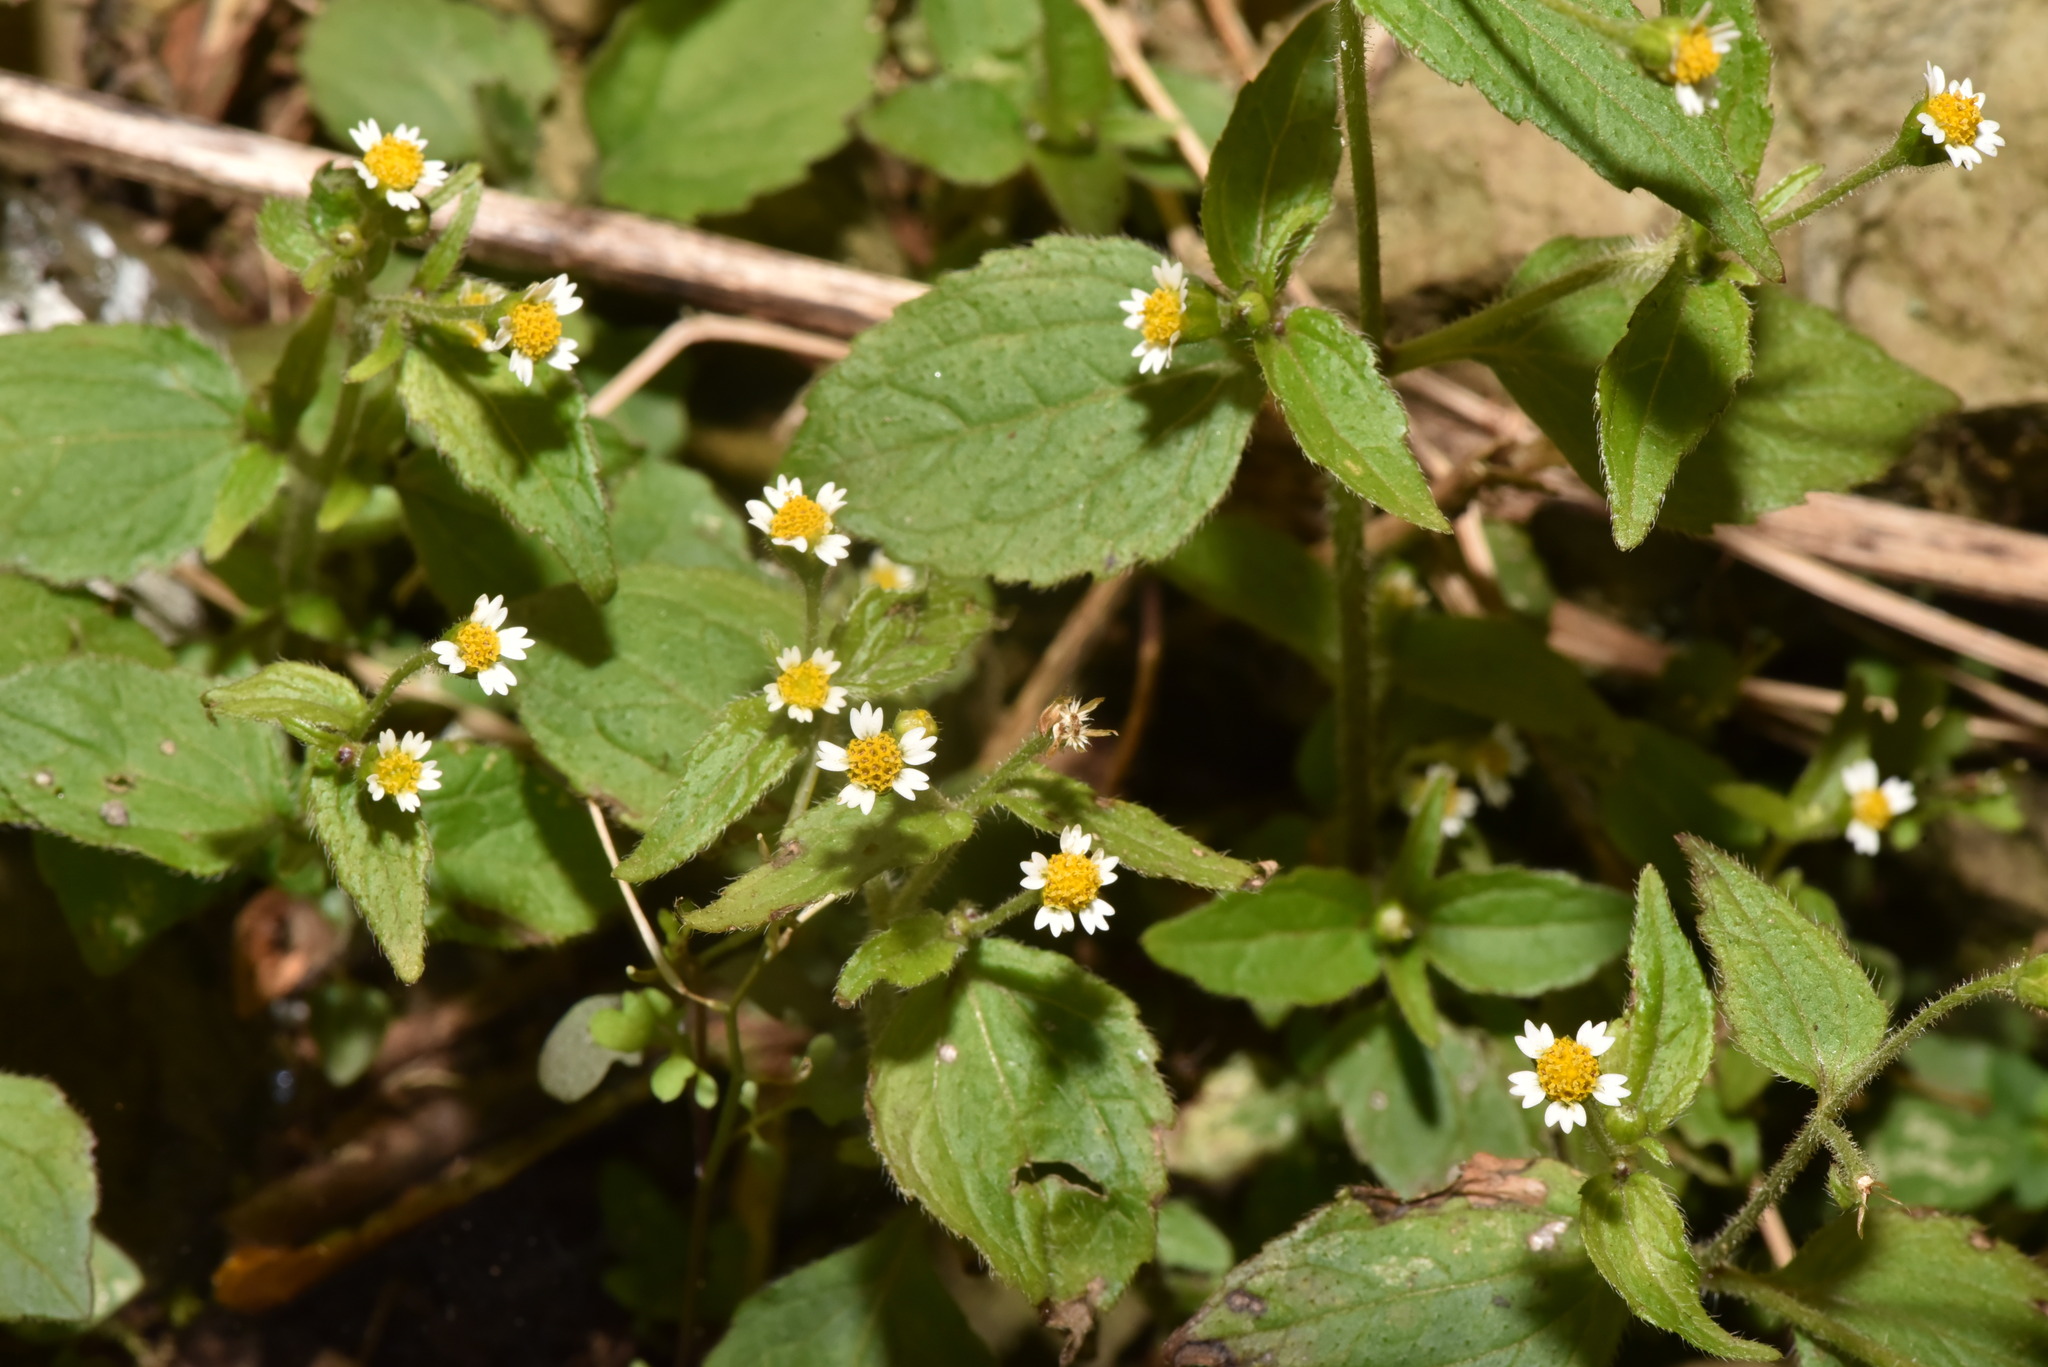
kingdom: Plantae
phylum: Tracheophyta
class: Magnoliopsida
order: Asterales
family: Asteraceae
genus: Galinsoga
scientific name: Galinsoga quadriradiata
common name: Shaggy soldier
